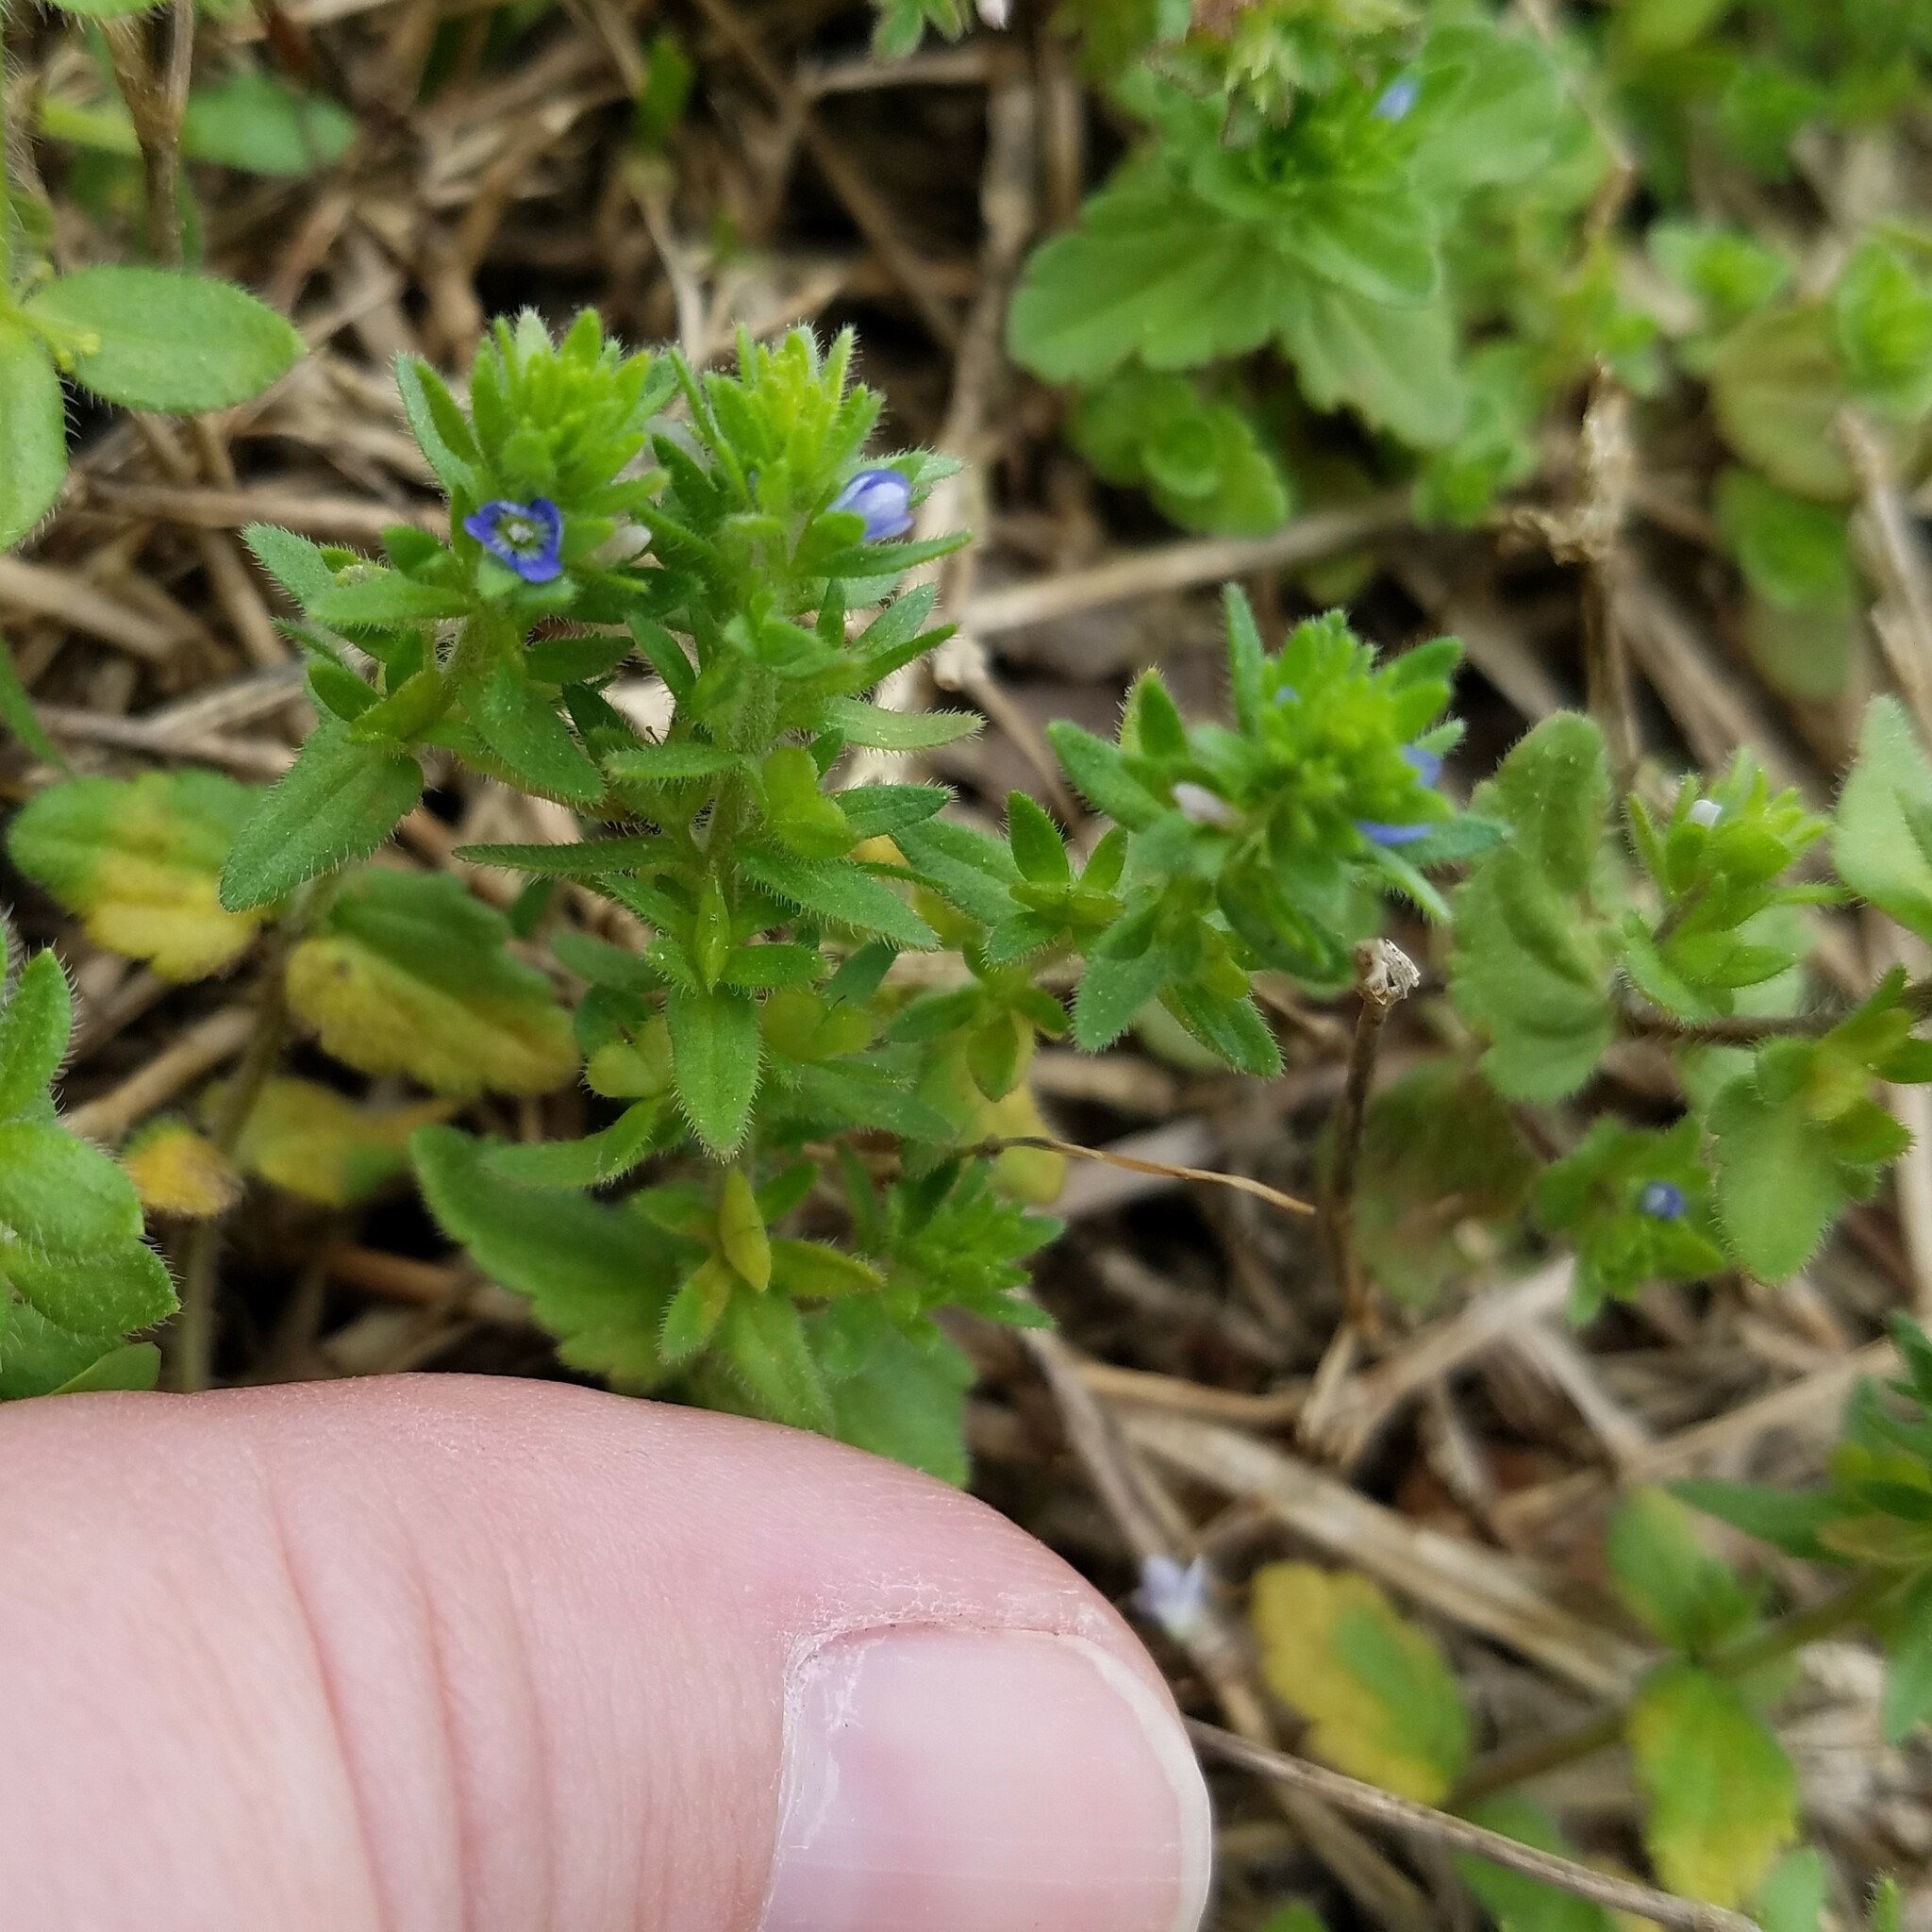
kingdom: Plantae
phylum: Tracheophyta
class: Magnoliopsida
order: Lamiales
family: Plantaginaceae
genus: Veronica
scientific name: Veronica arvensis
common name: Corn speedwell
